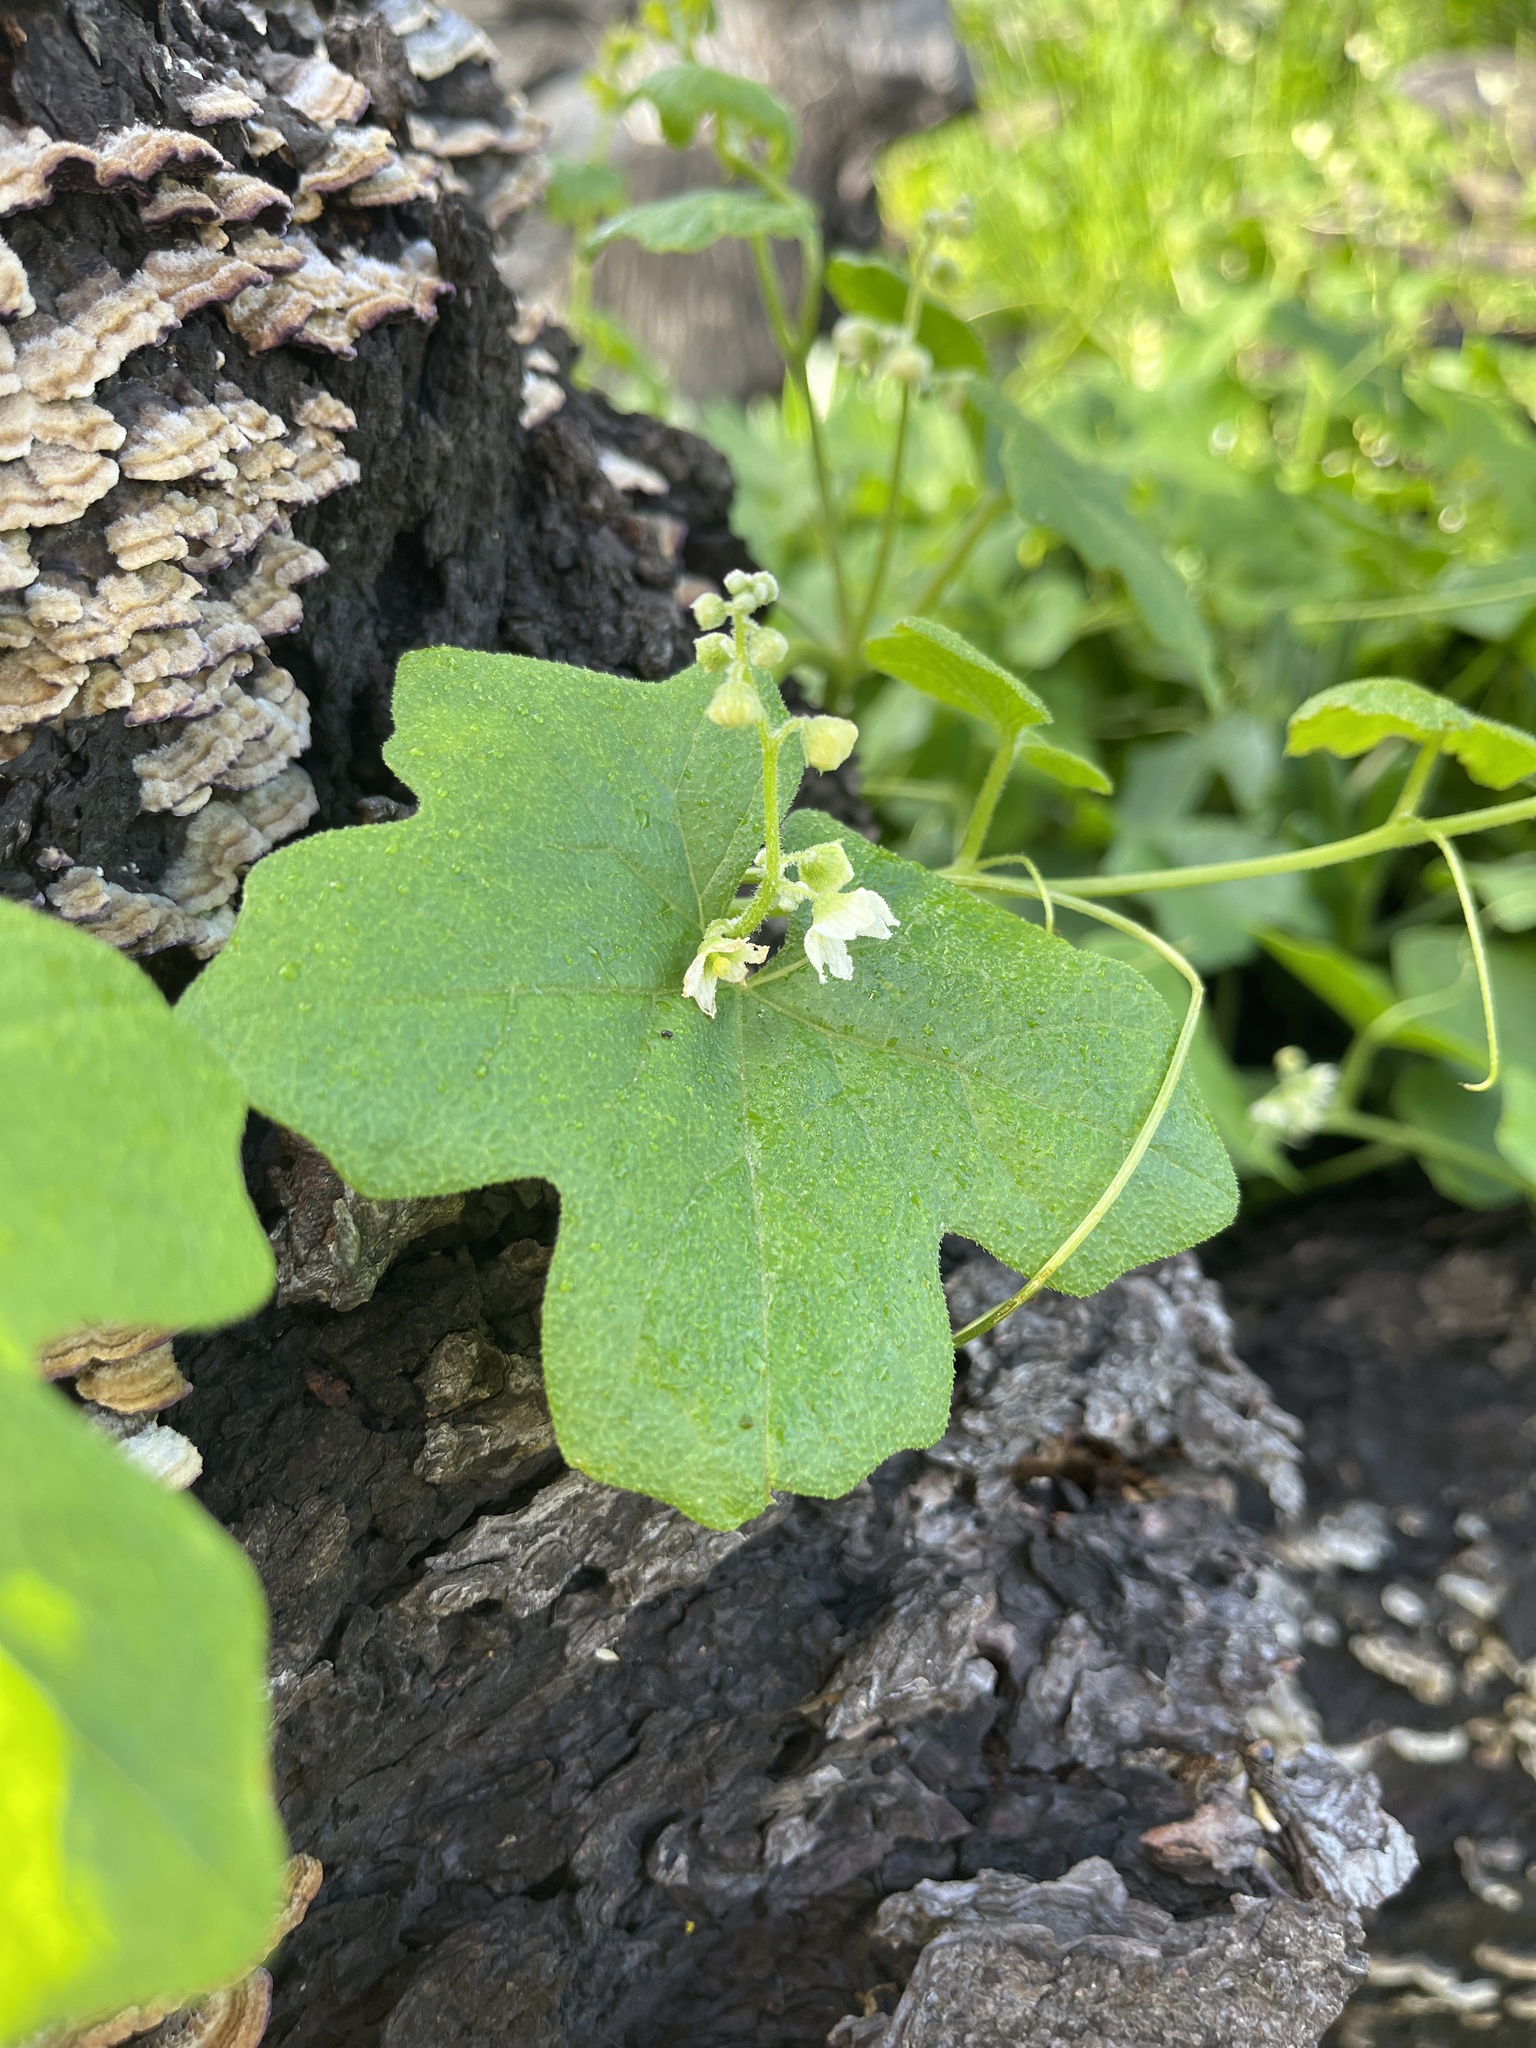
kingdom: Plantae
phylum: Tracheophyta
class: Magnoliopsida
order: Cucurbitales
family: Cucurbitaceae
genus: Marah
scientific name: Marah macrocarpa
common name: Cucamonga manroot
